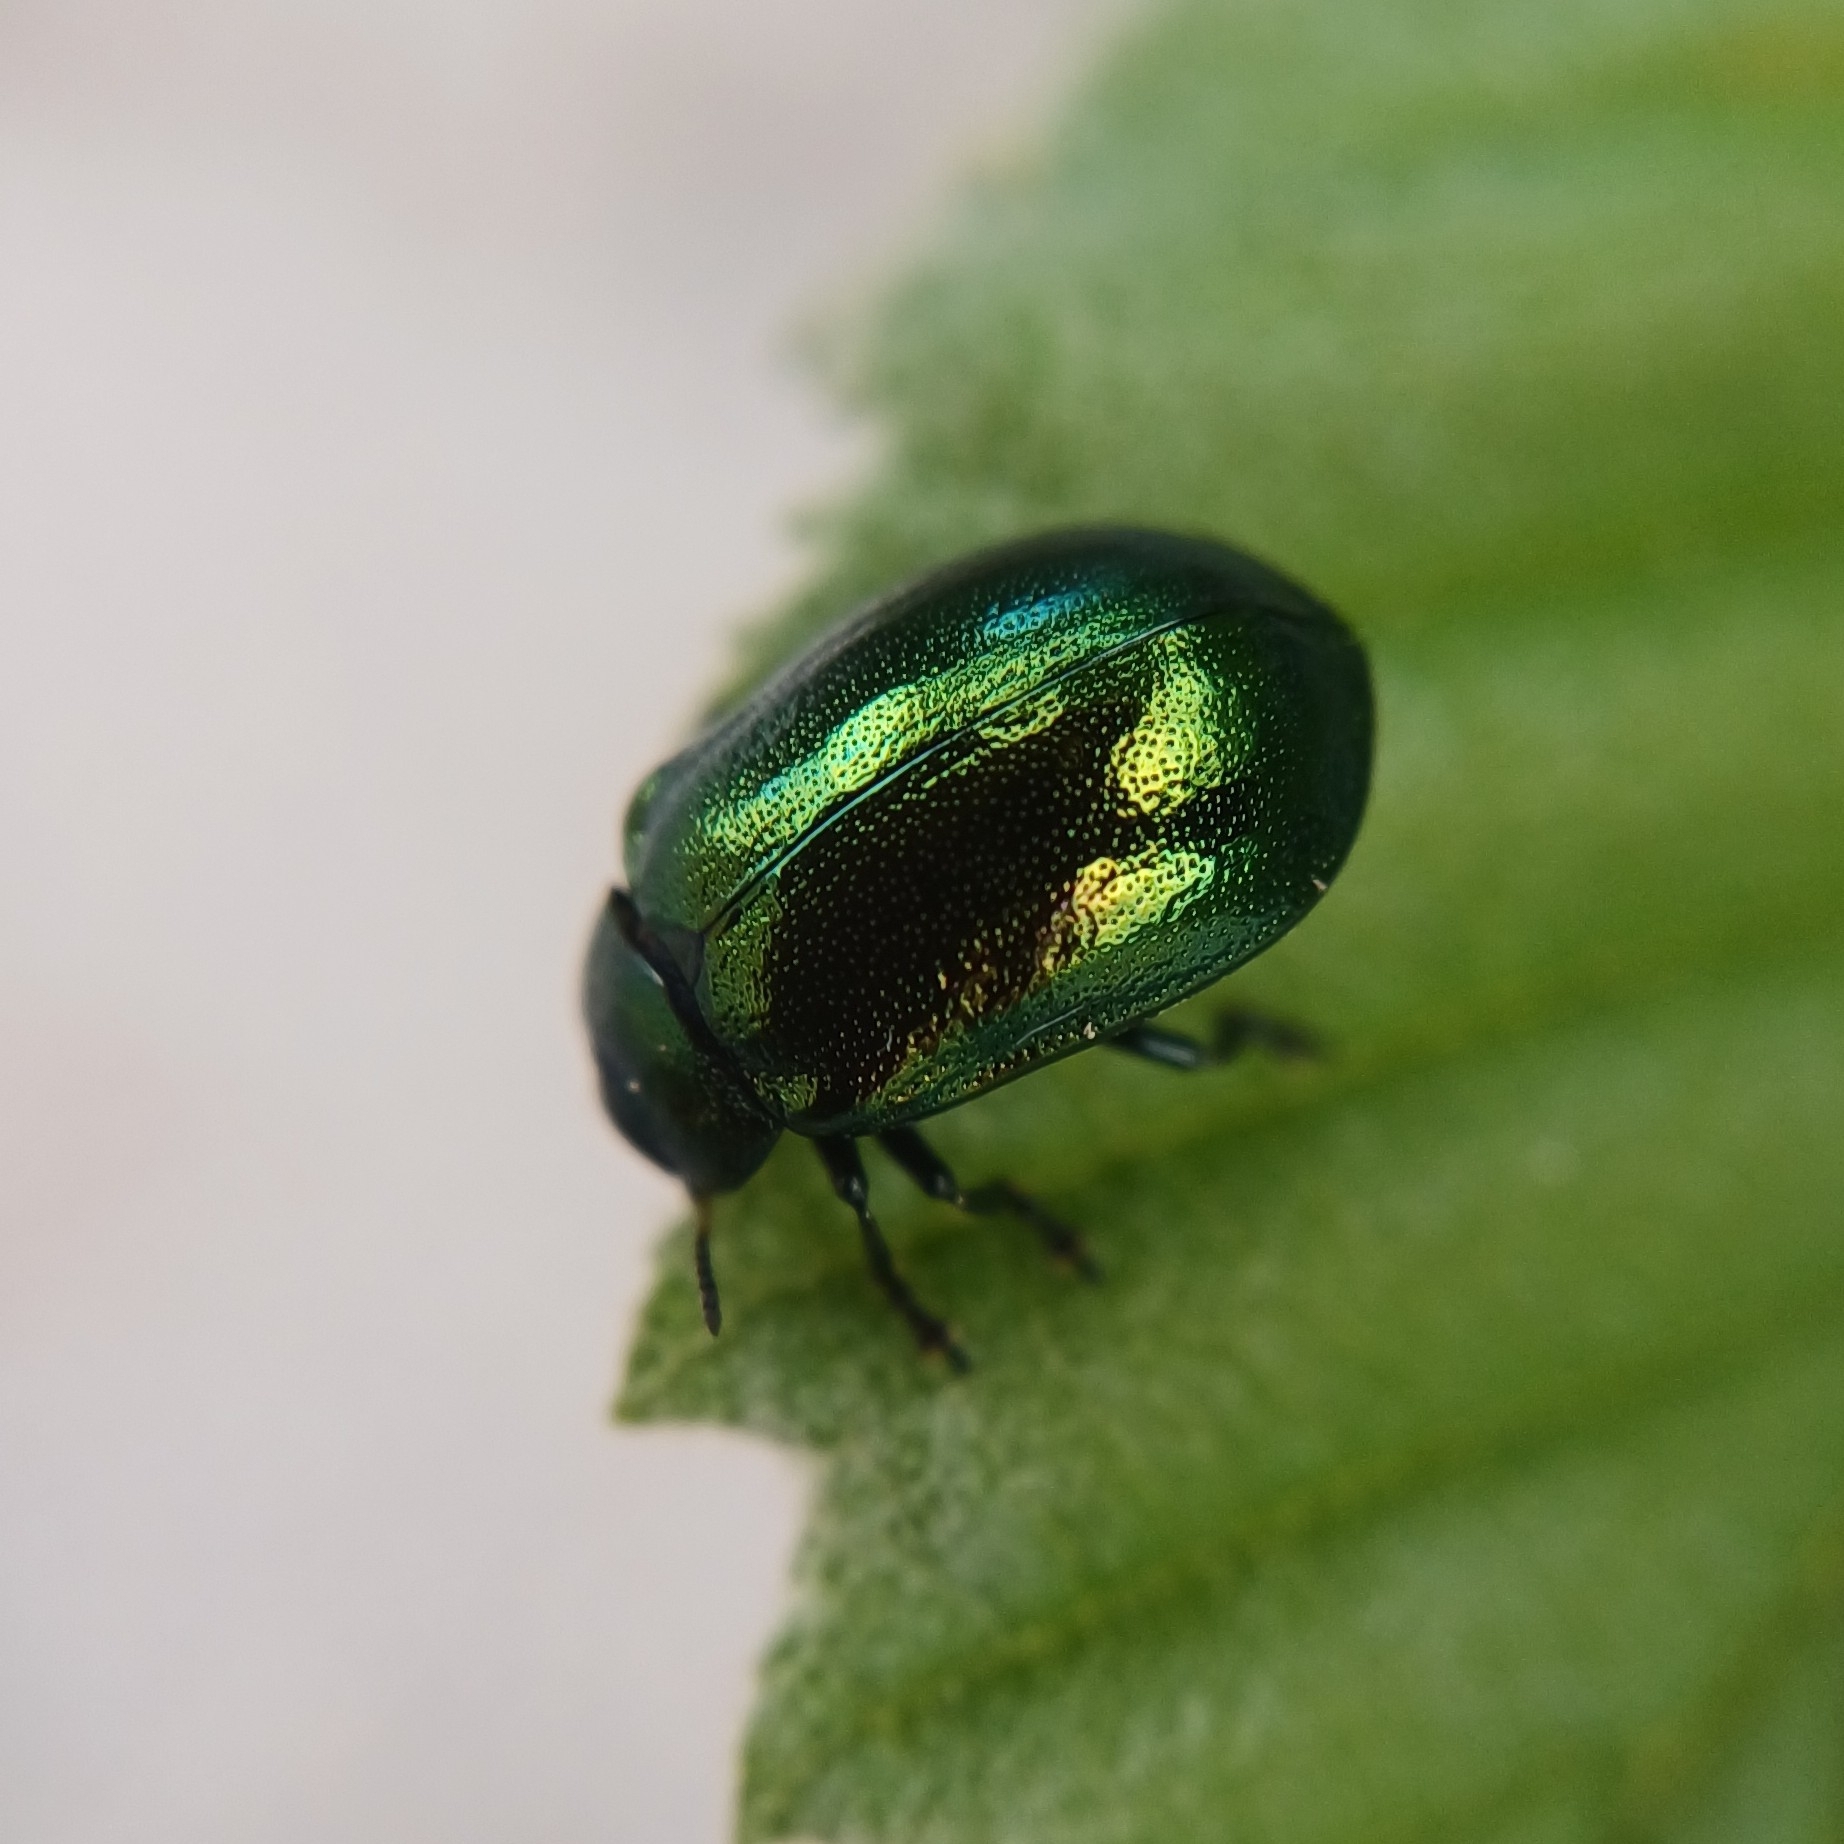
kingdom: Animalia
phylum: Arthropoda
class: Insecta
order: Coleoptera
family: Chrysomelidae
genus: Plagiosterna
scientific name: Plagiosterna aenea
